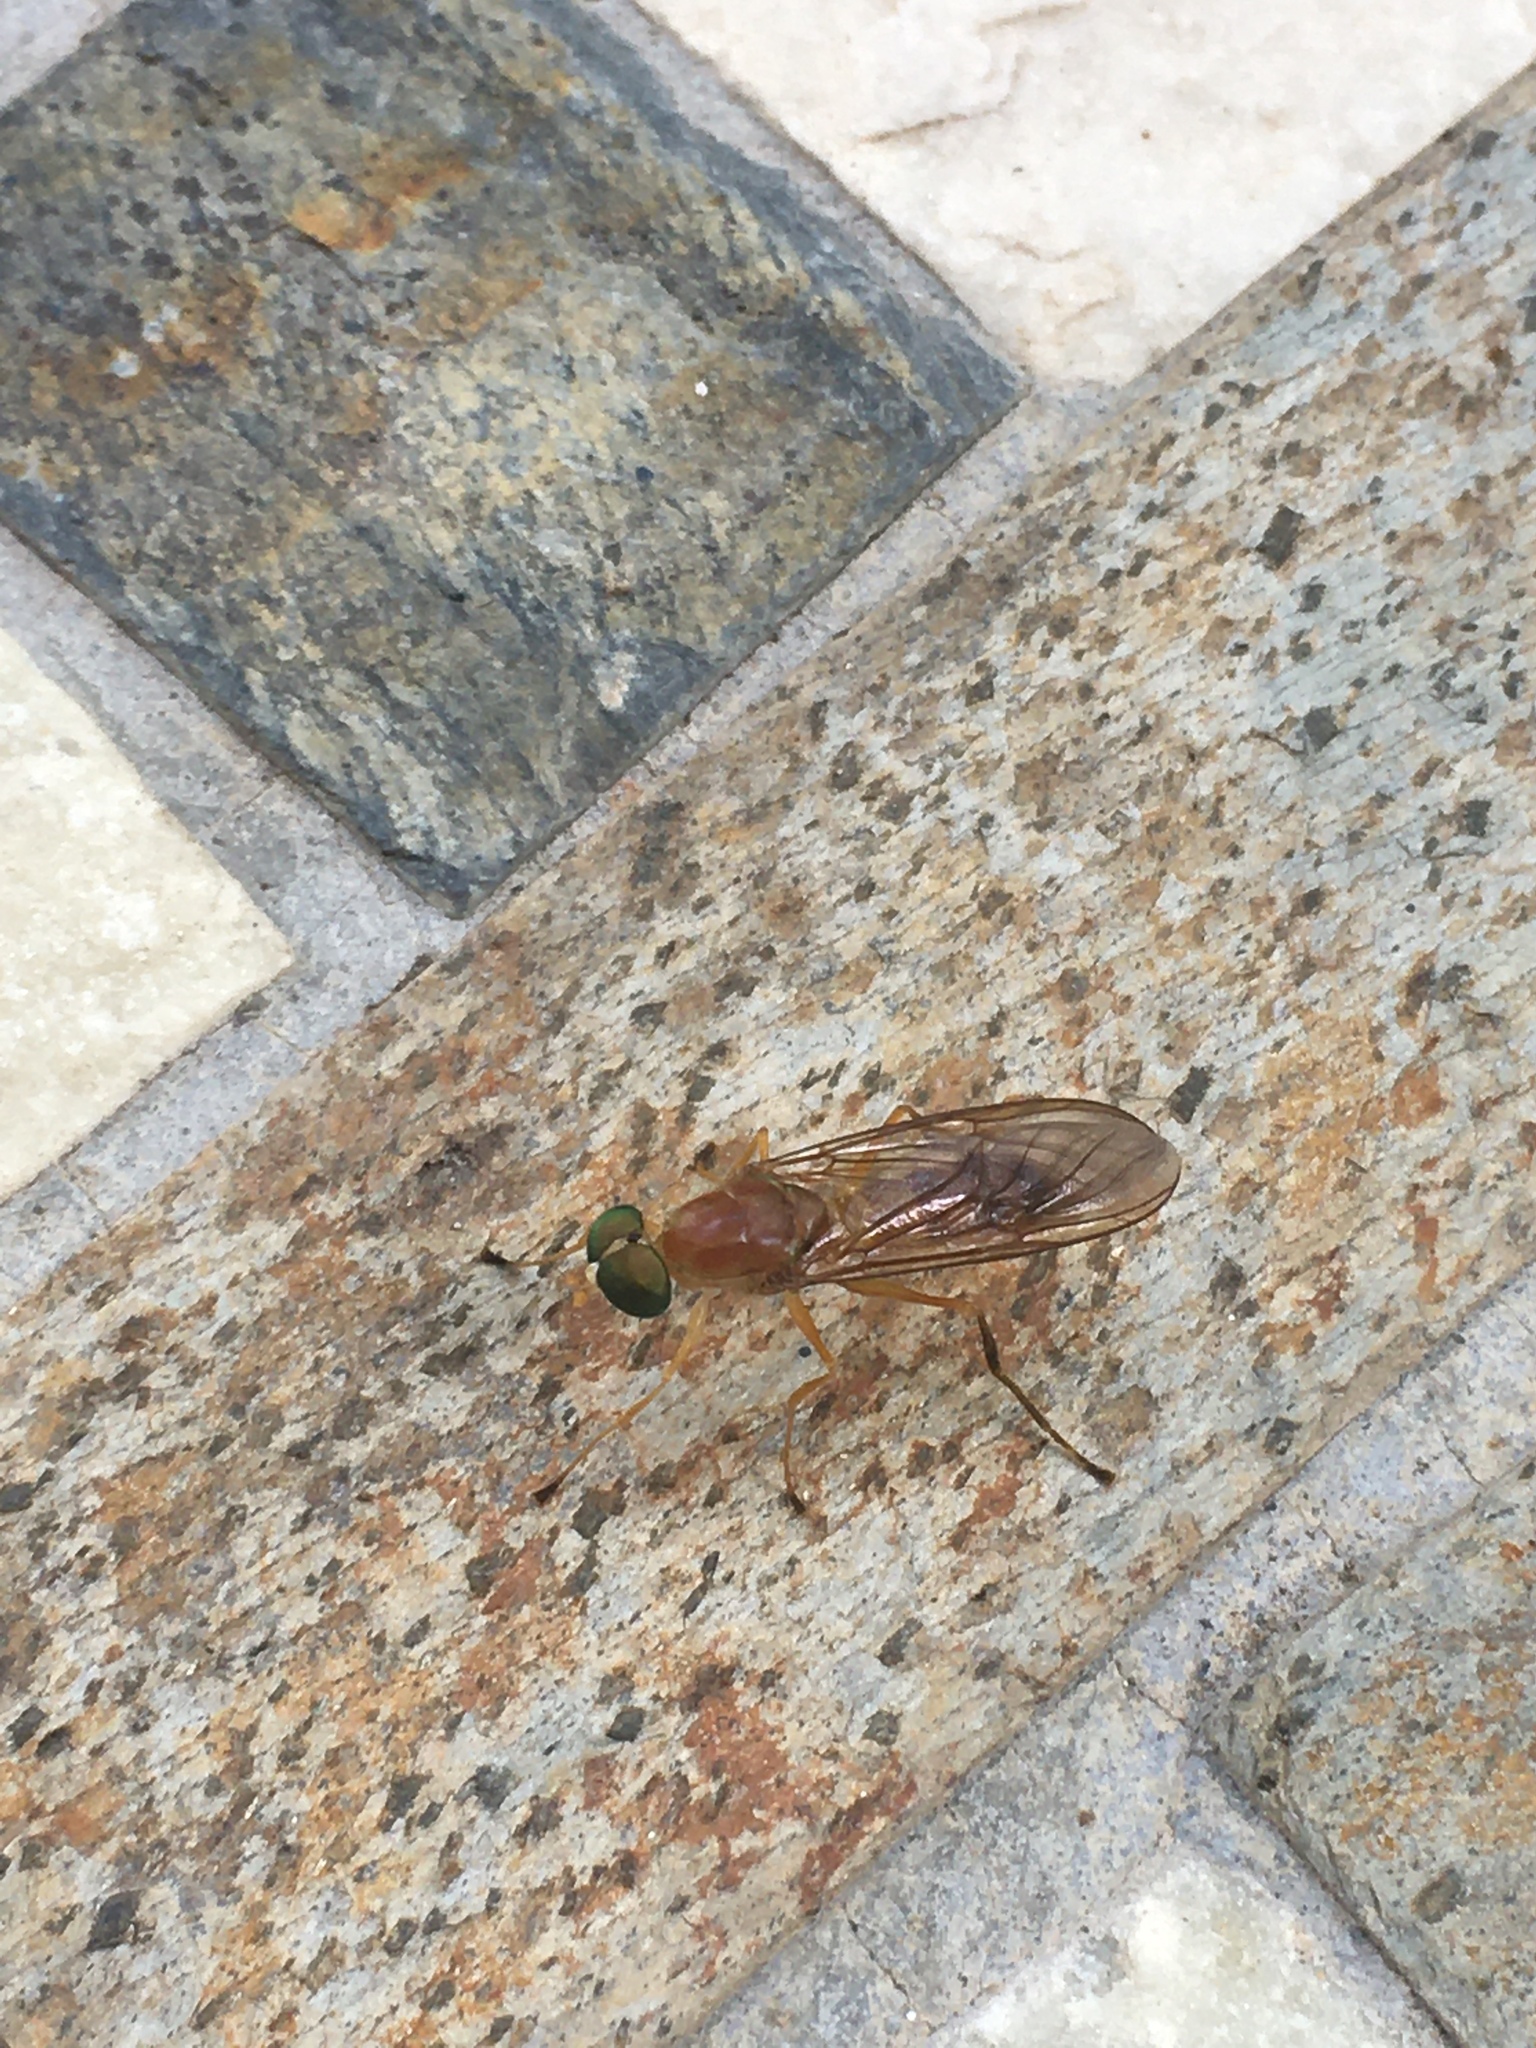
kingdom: Animalia
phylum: Arthropoda
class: Insecta
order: Diptera
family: Stratiomyidae
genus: Ptecticus
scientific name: Ptecticus trivittatus
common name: Compost fly
